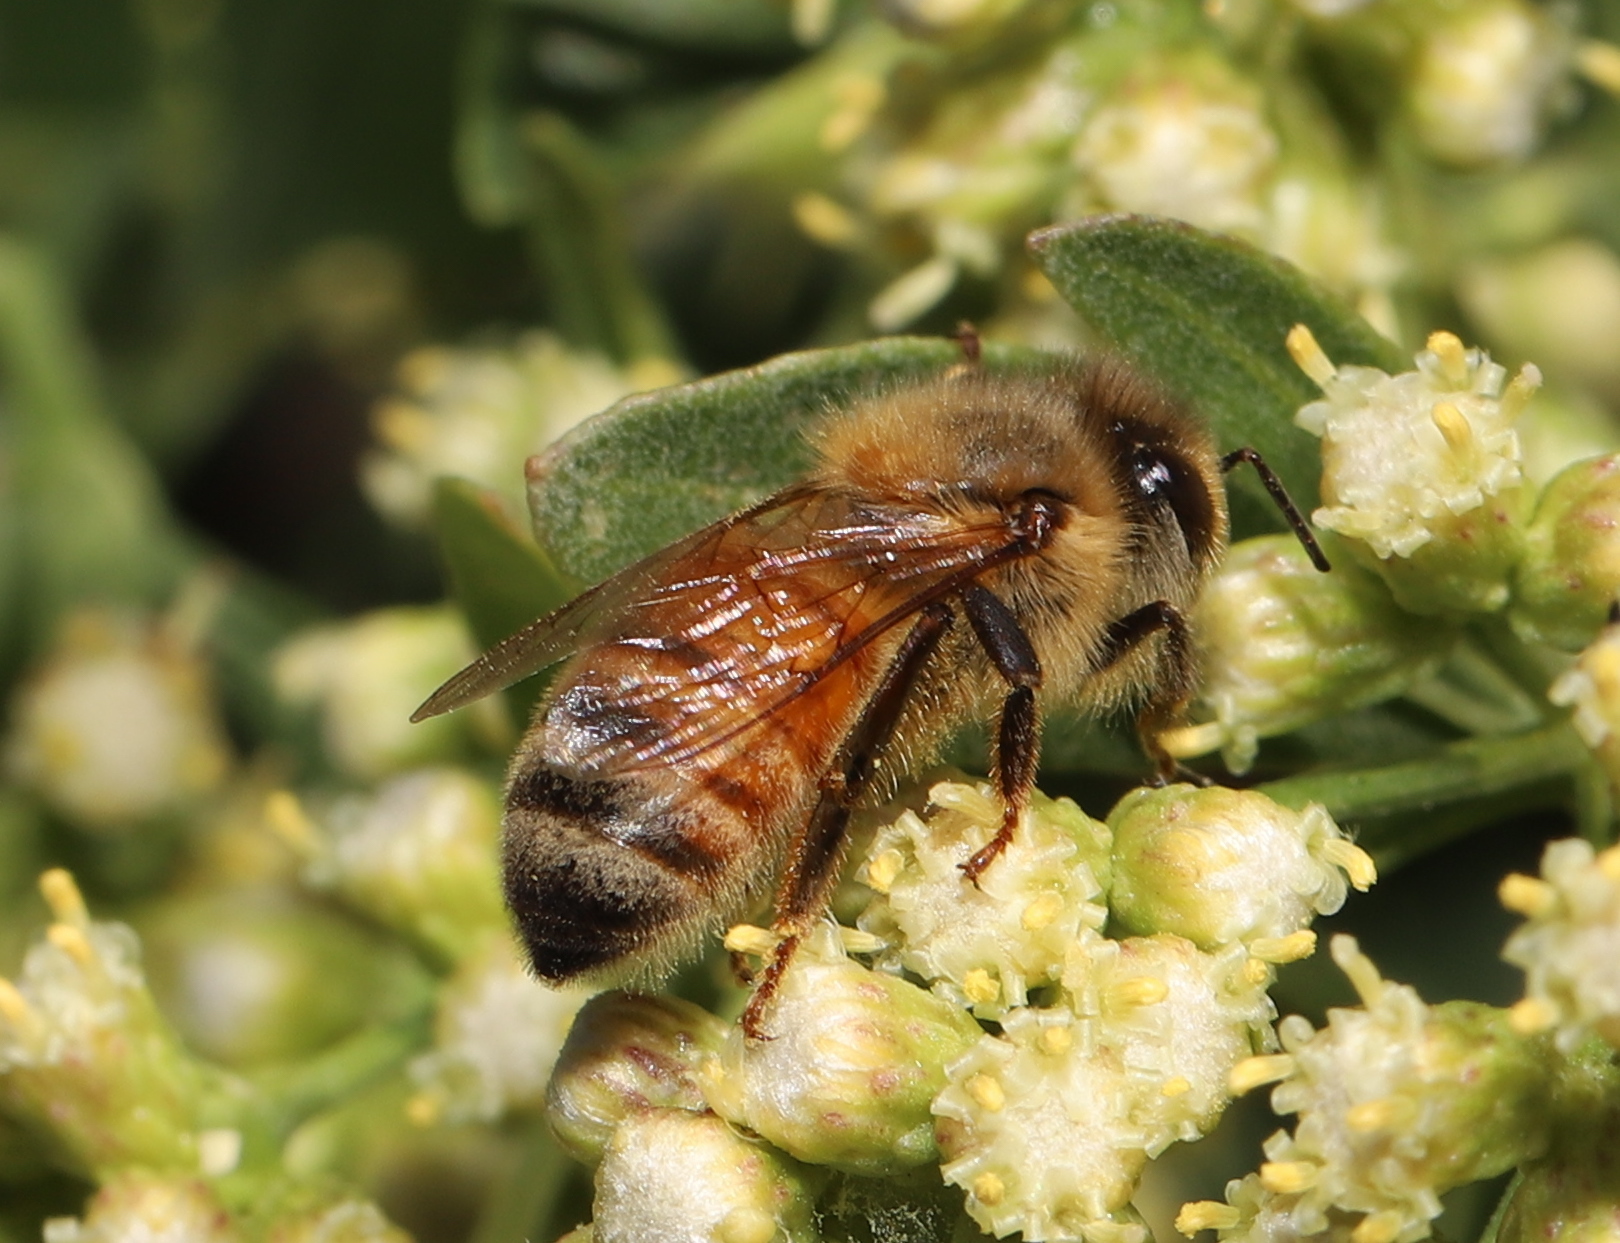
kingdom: Animalia
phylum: Arthropoda
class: Insecta
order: Hymenoptera
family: Apidae
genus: Apis
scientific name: Apis mellifera
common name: Honey bee
